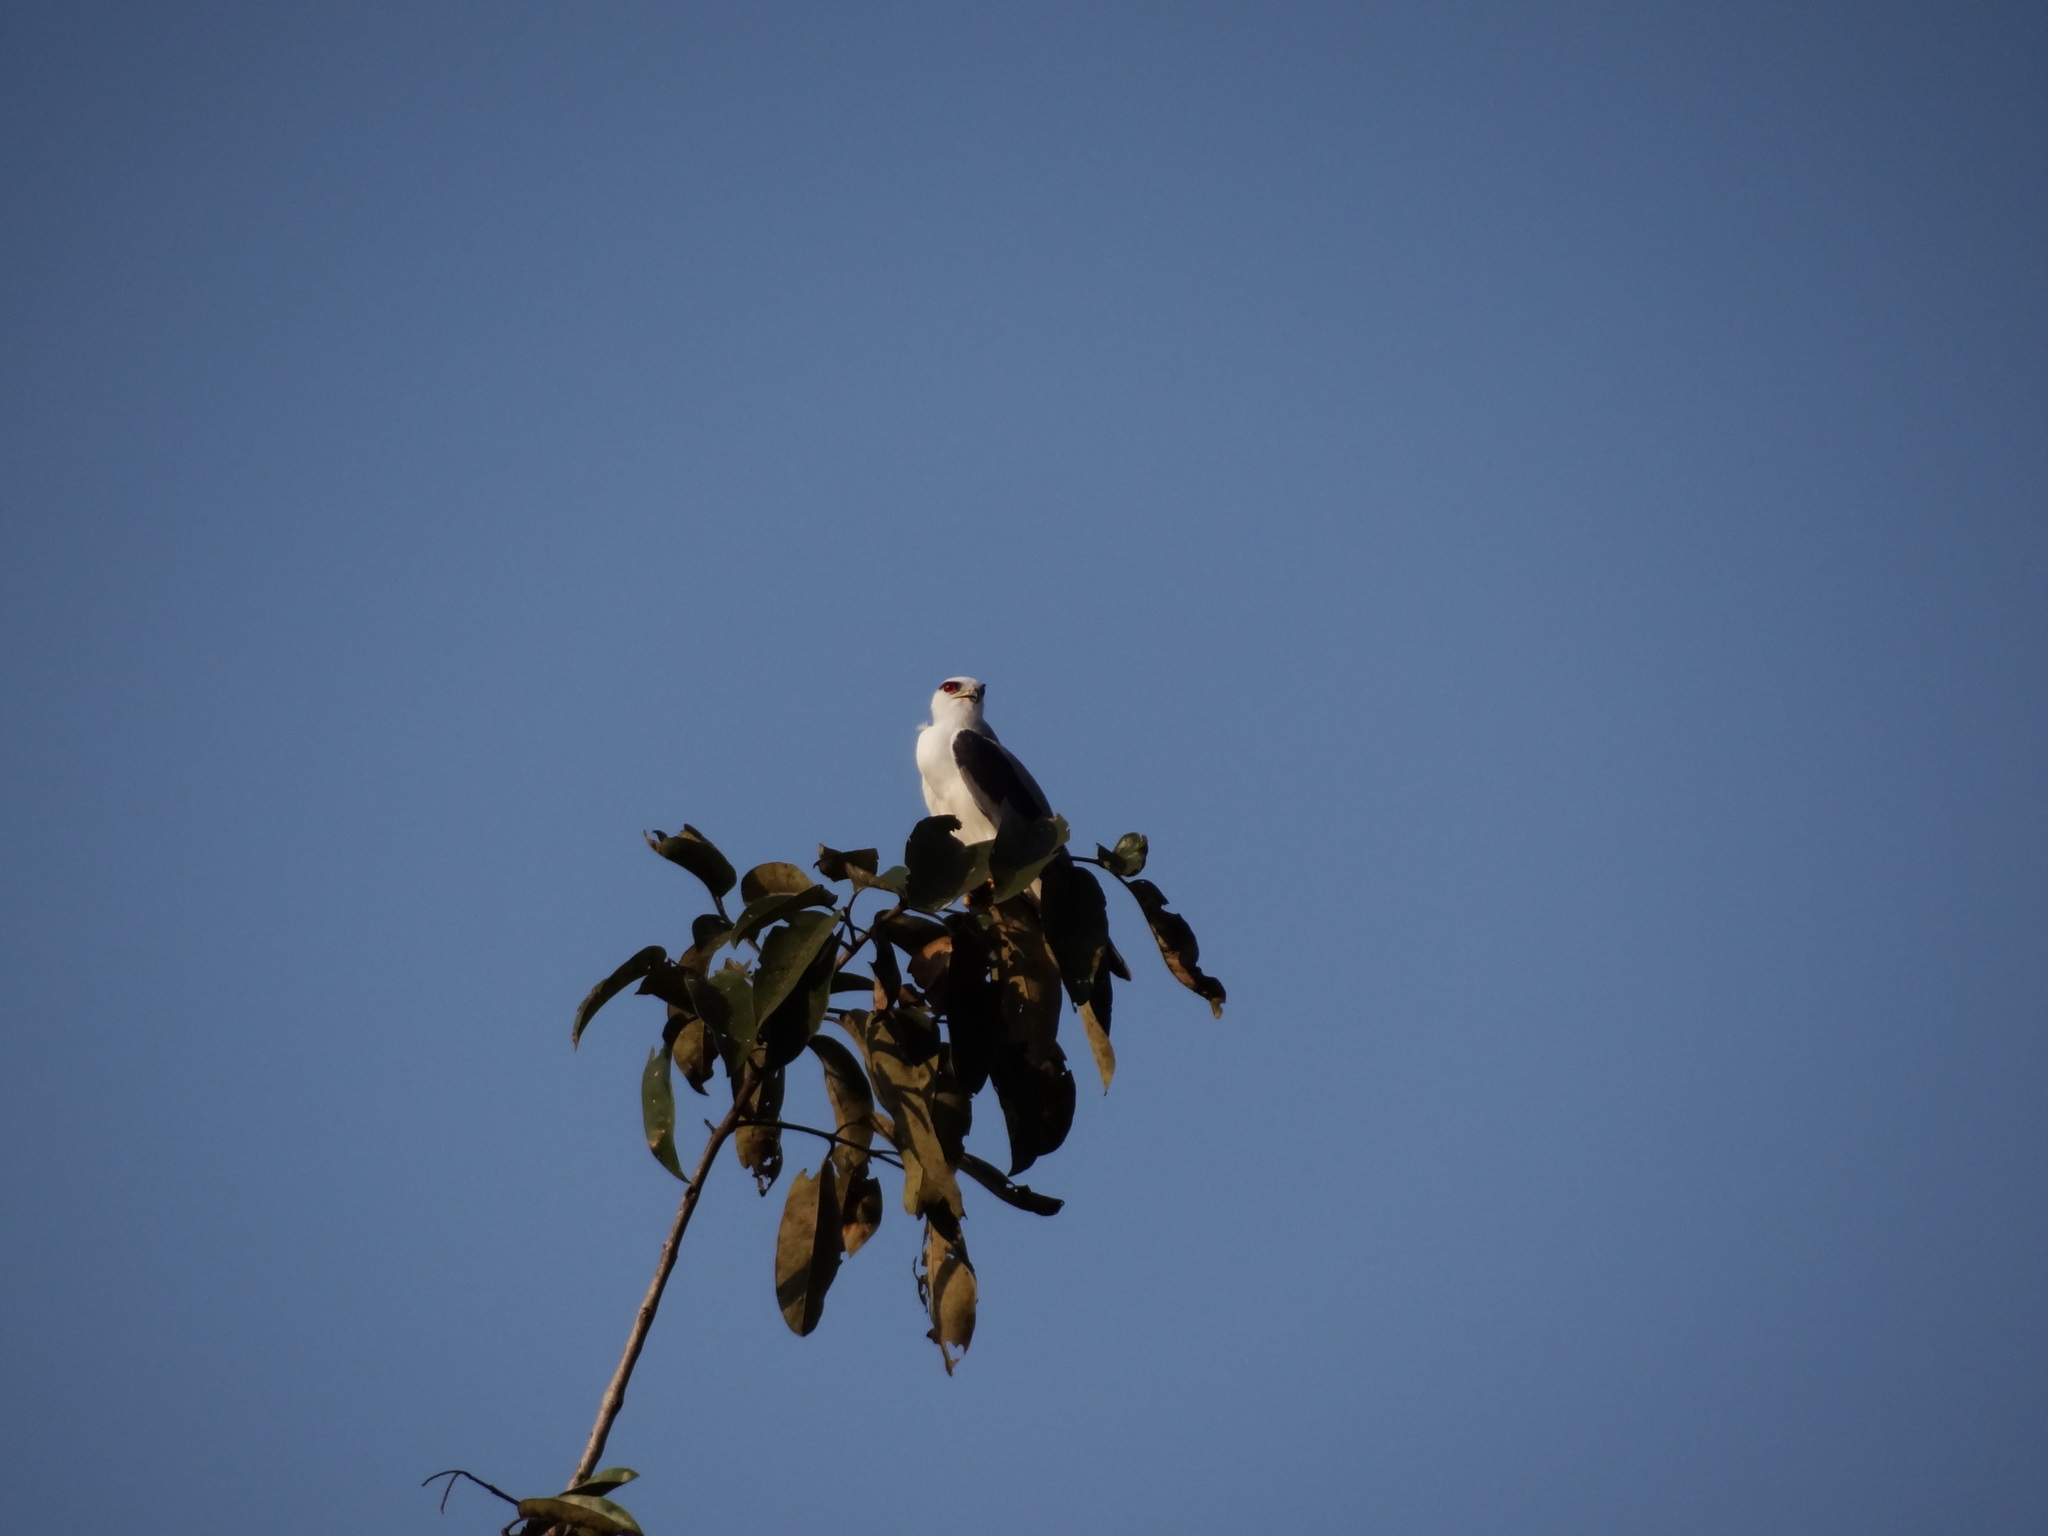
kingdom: Animalia
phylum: Chordata
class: Aves
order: Accipitriformes
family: Accipitridae
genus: Elanus
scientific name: Elanus caeruleus
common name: Black-winged kite
